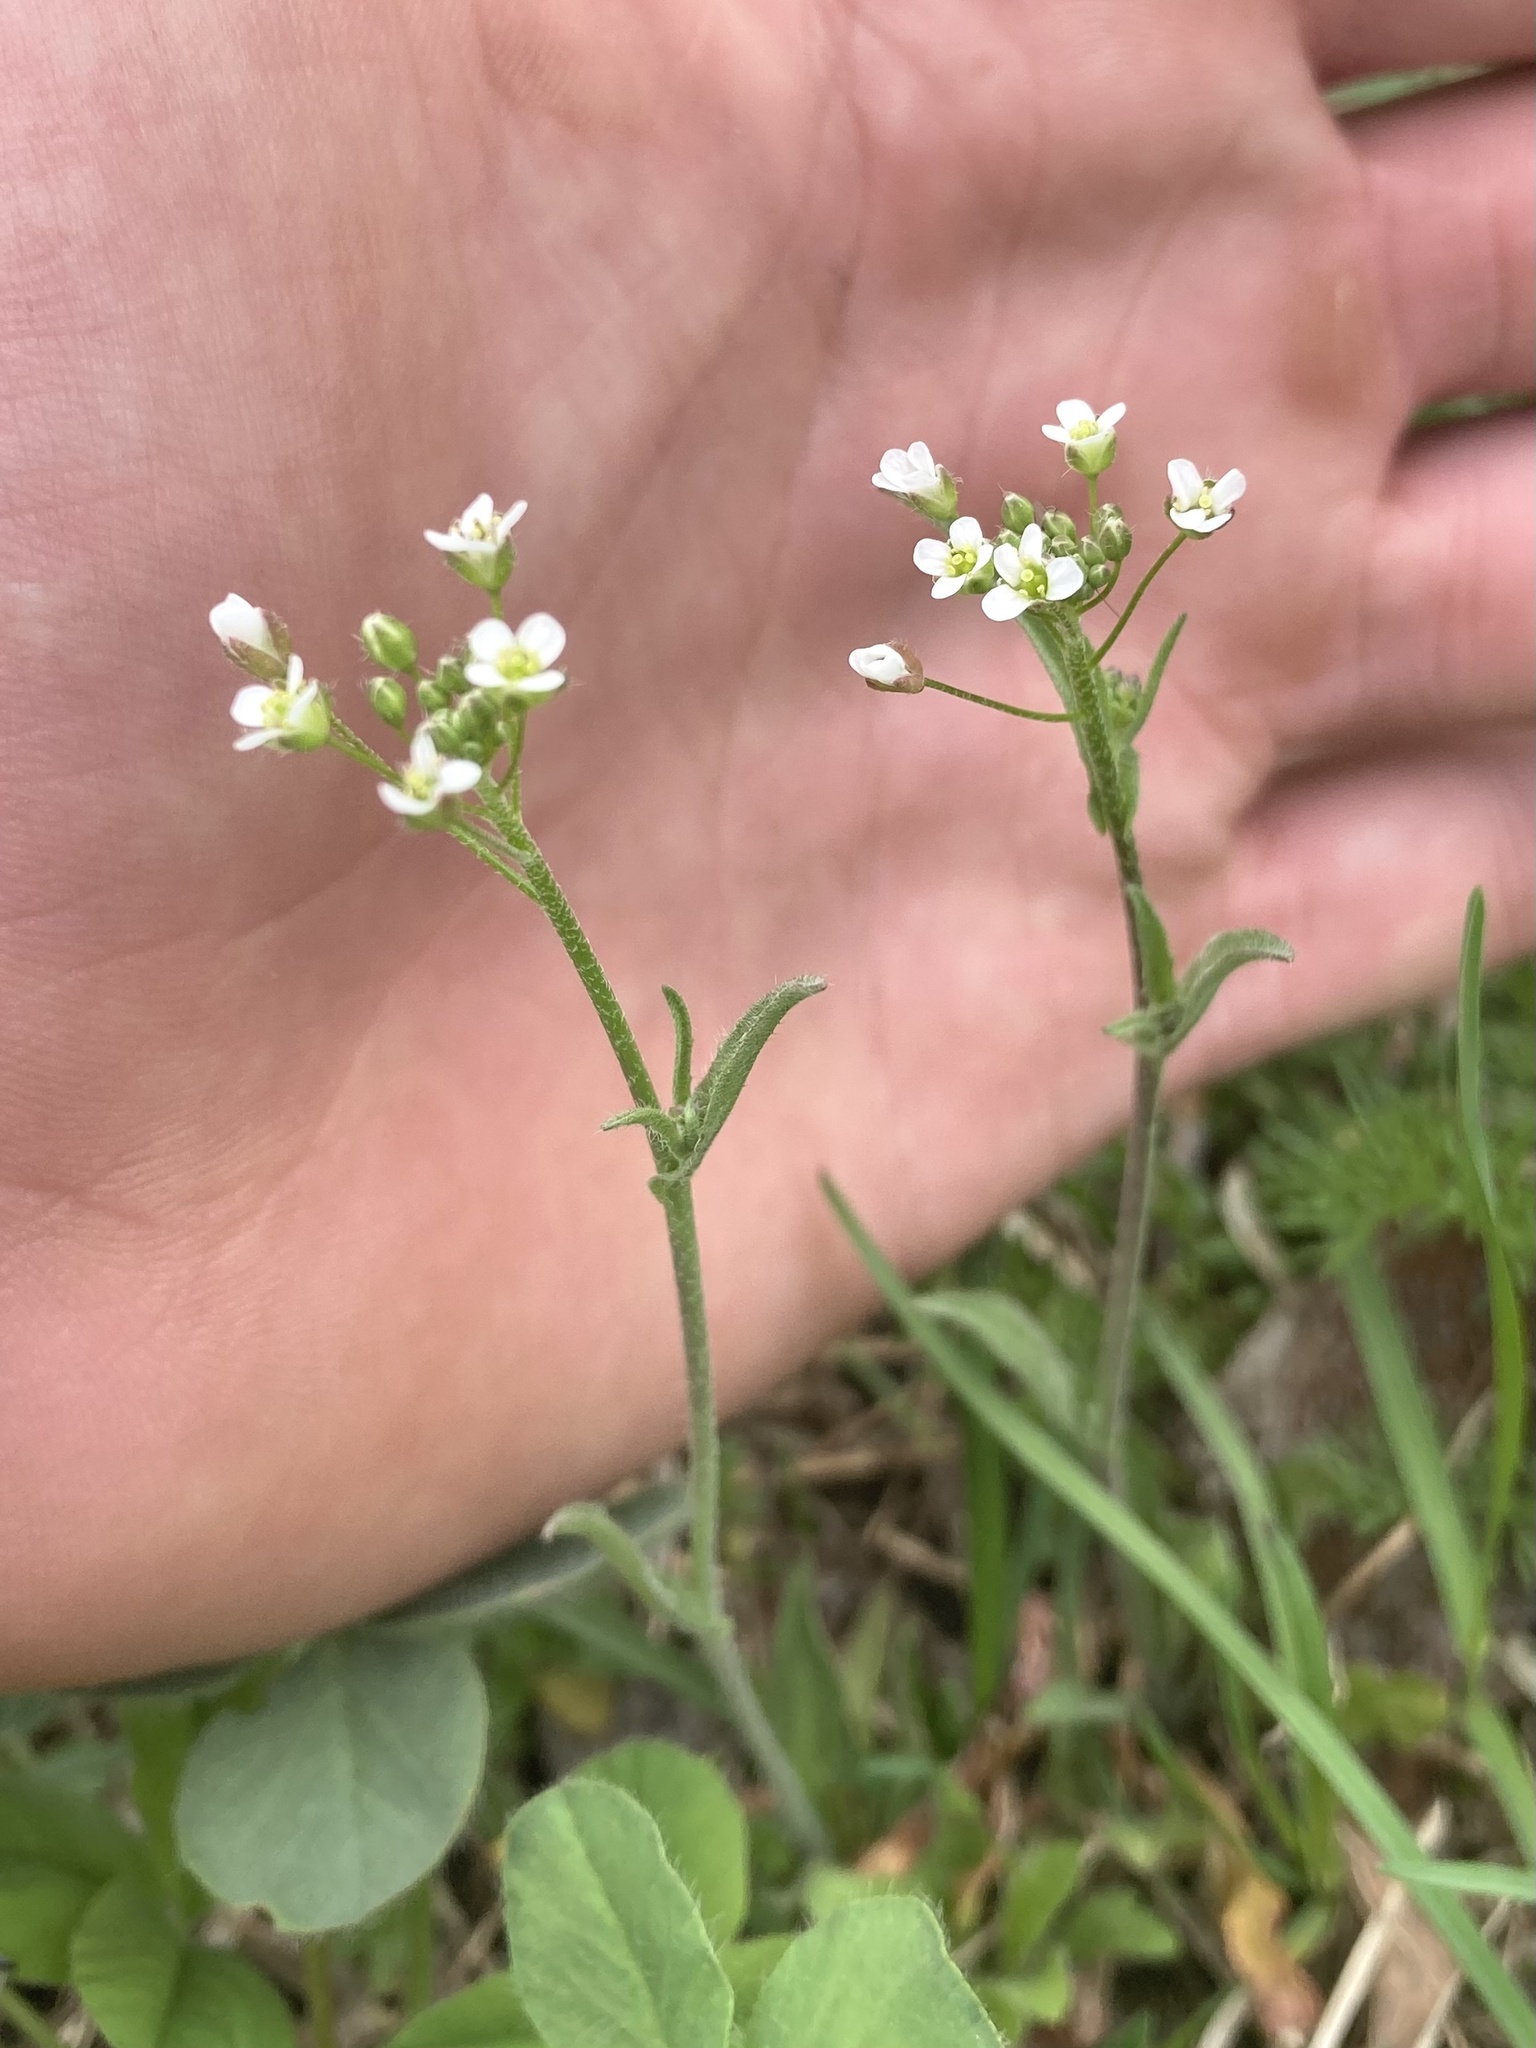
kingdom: Plantae
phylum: Tracheophyta
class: Magnoliopsida
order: Brassicales
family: Brassicaceae
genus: Arabidopsis
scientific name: Arabidopsis thaliana
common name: Thale cress
